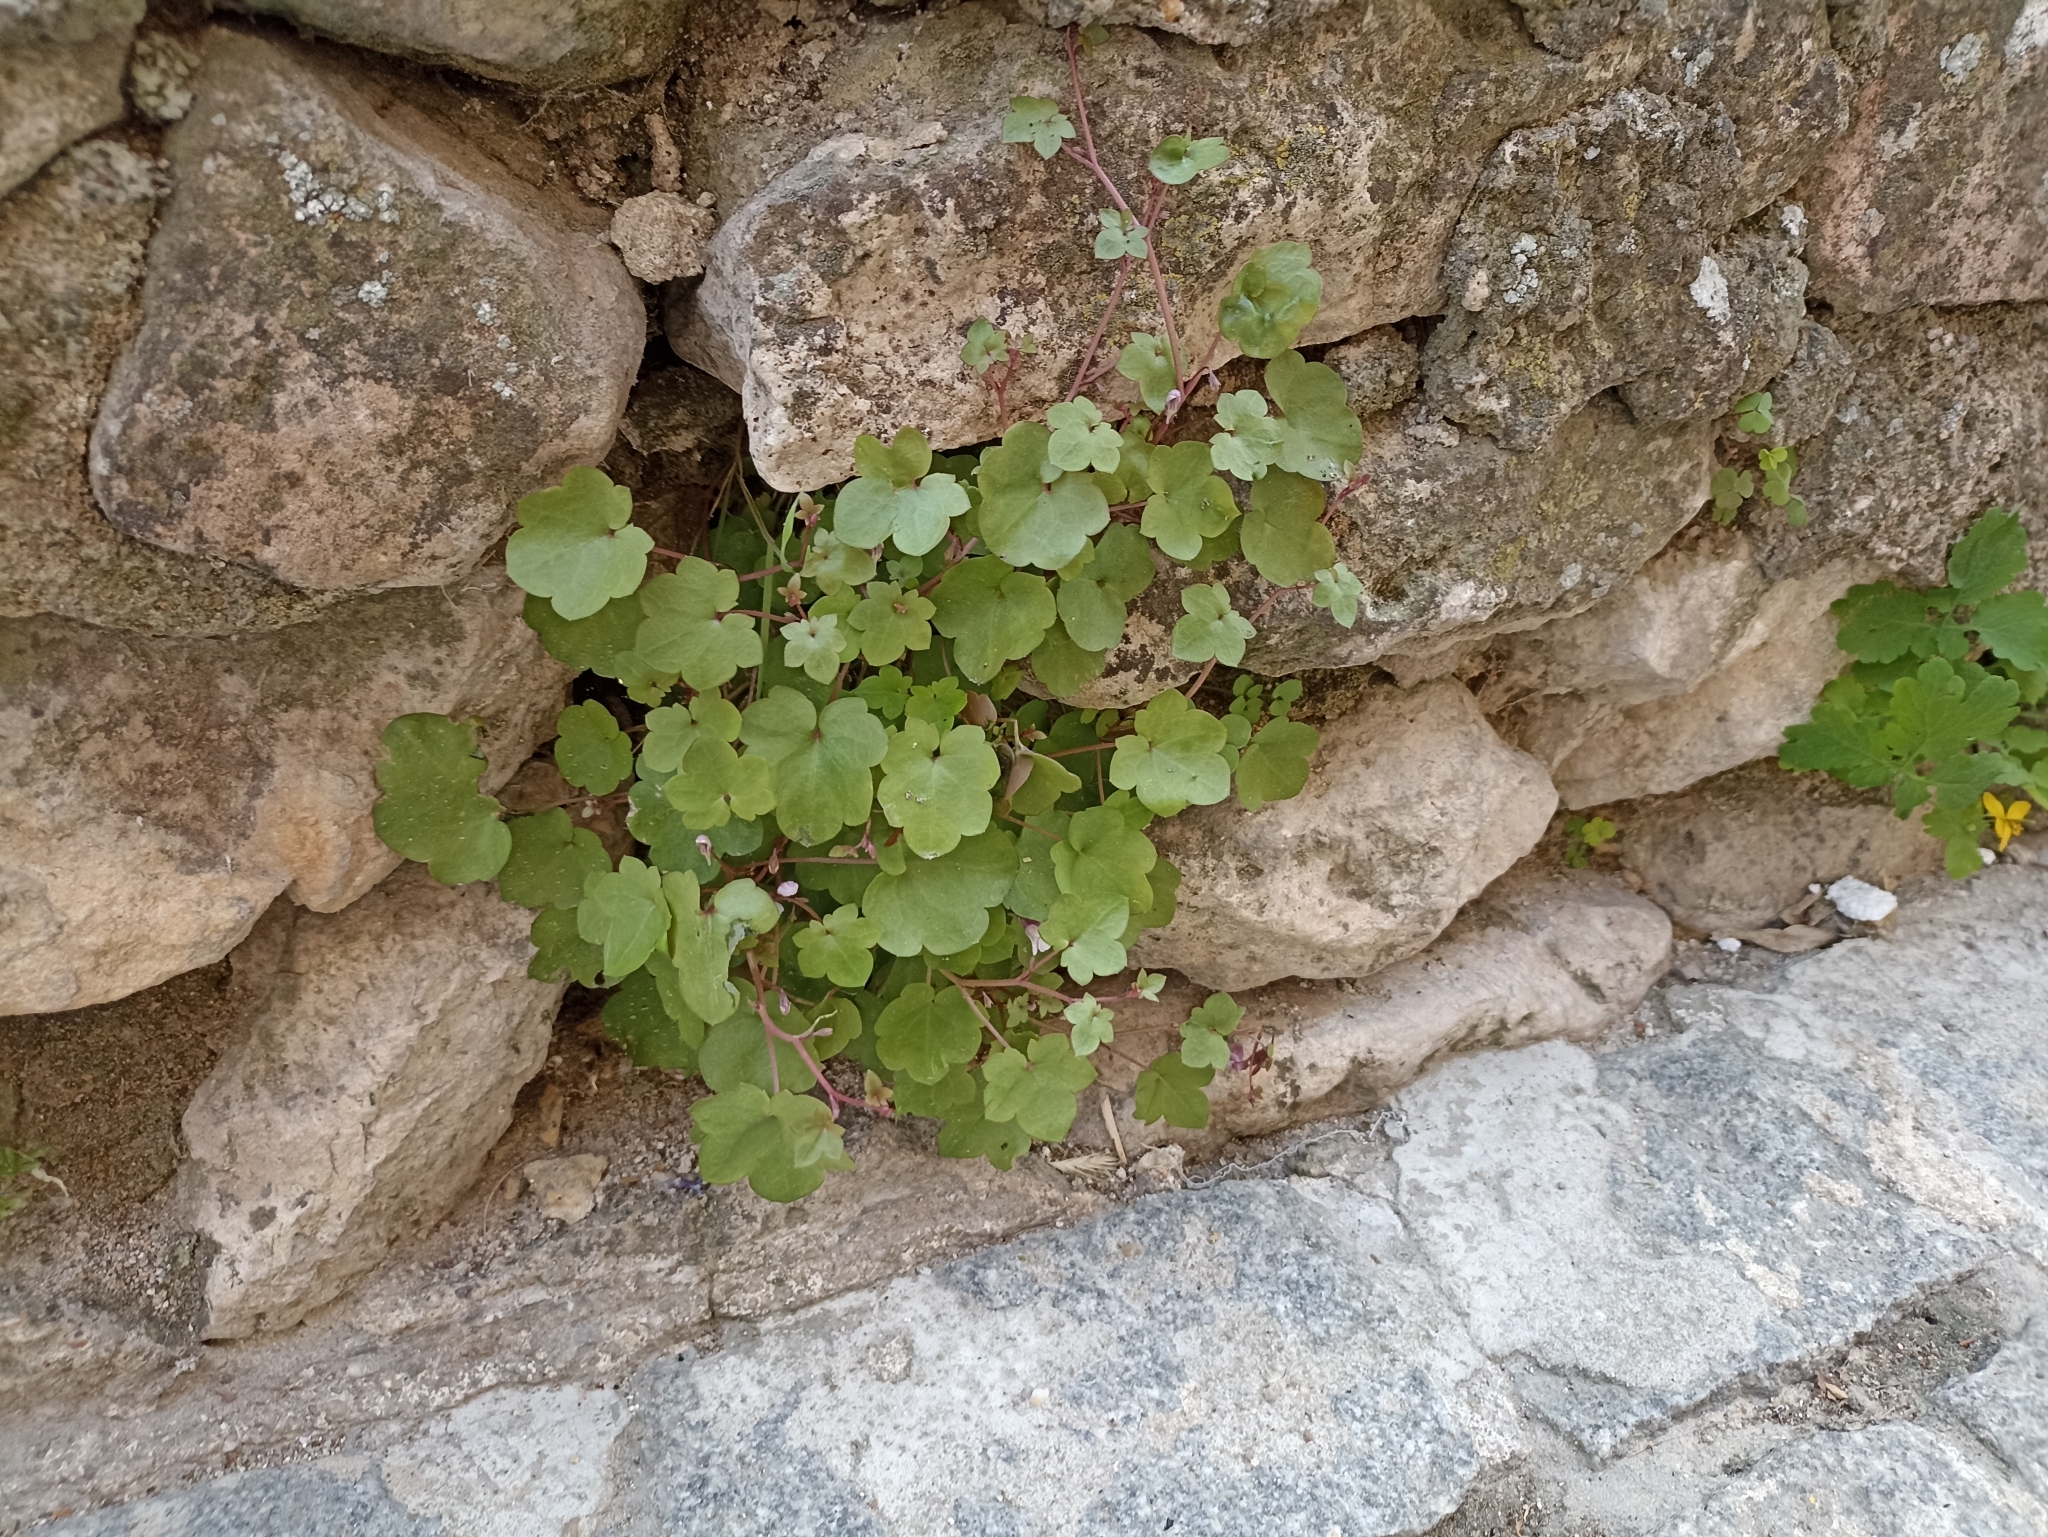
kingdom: Plantae
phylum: Tracheophyta
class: Magnoliopsida
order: Lamiales
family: Plantaginaceae
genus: Cymbalaria
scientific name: Cymbalaria muralis
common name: Ivy-leaved toadflax
